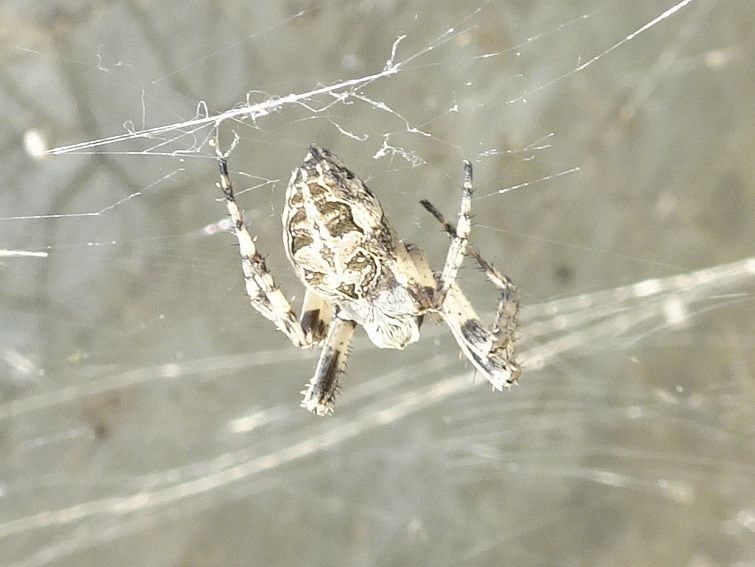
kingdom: Animalia
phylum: Arthropoda
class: Arachnida
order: Araneae
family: Araneidae
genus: Larinioides
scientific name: Larinioides sclopetarius
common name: Bridge orbweaver
